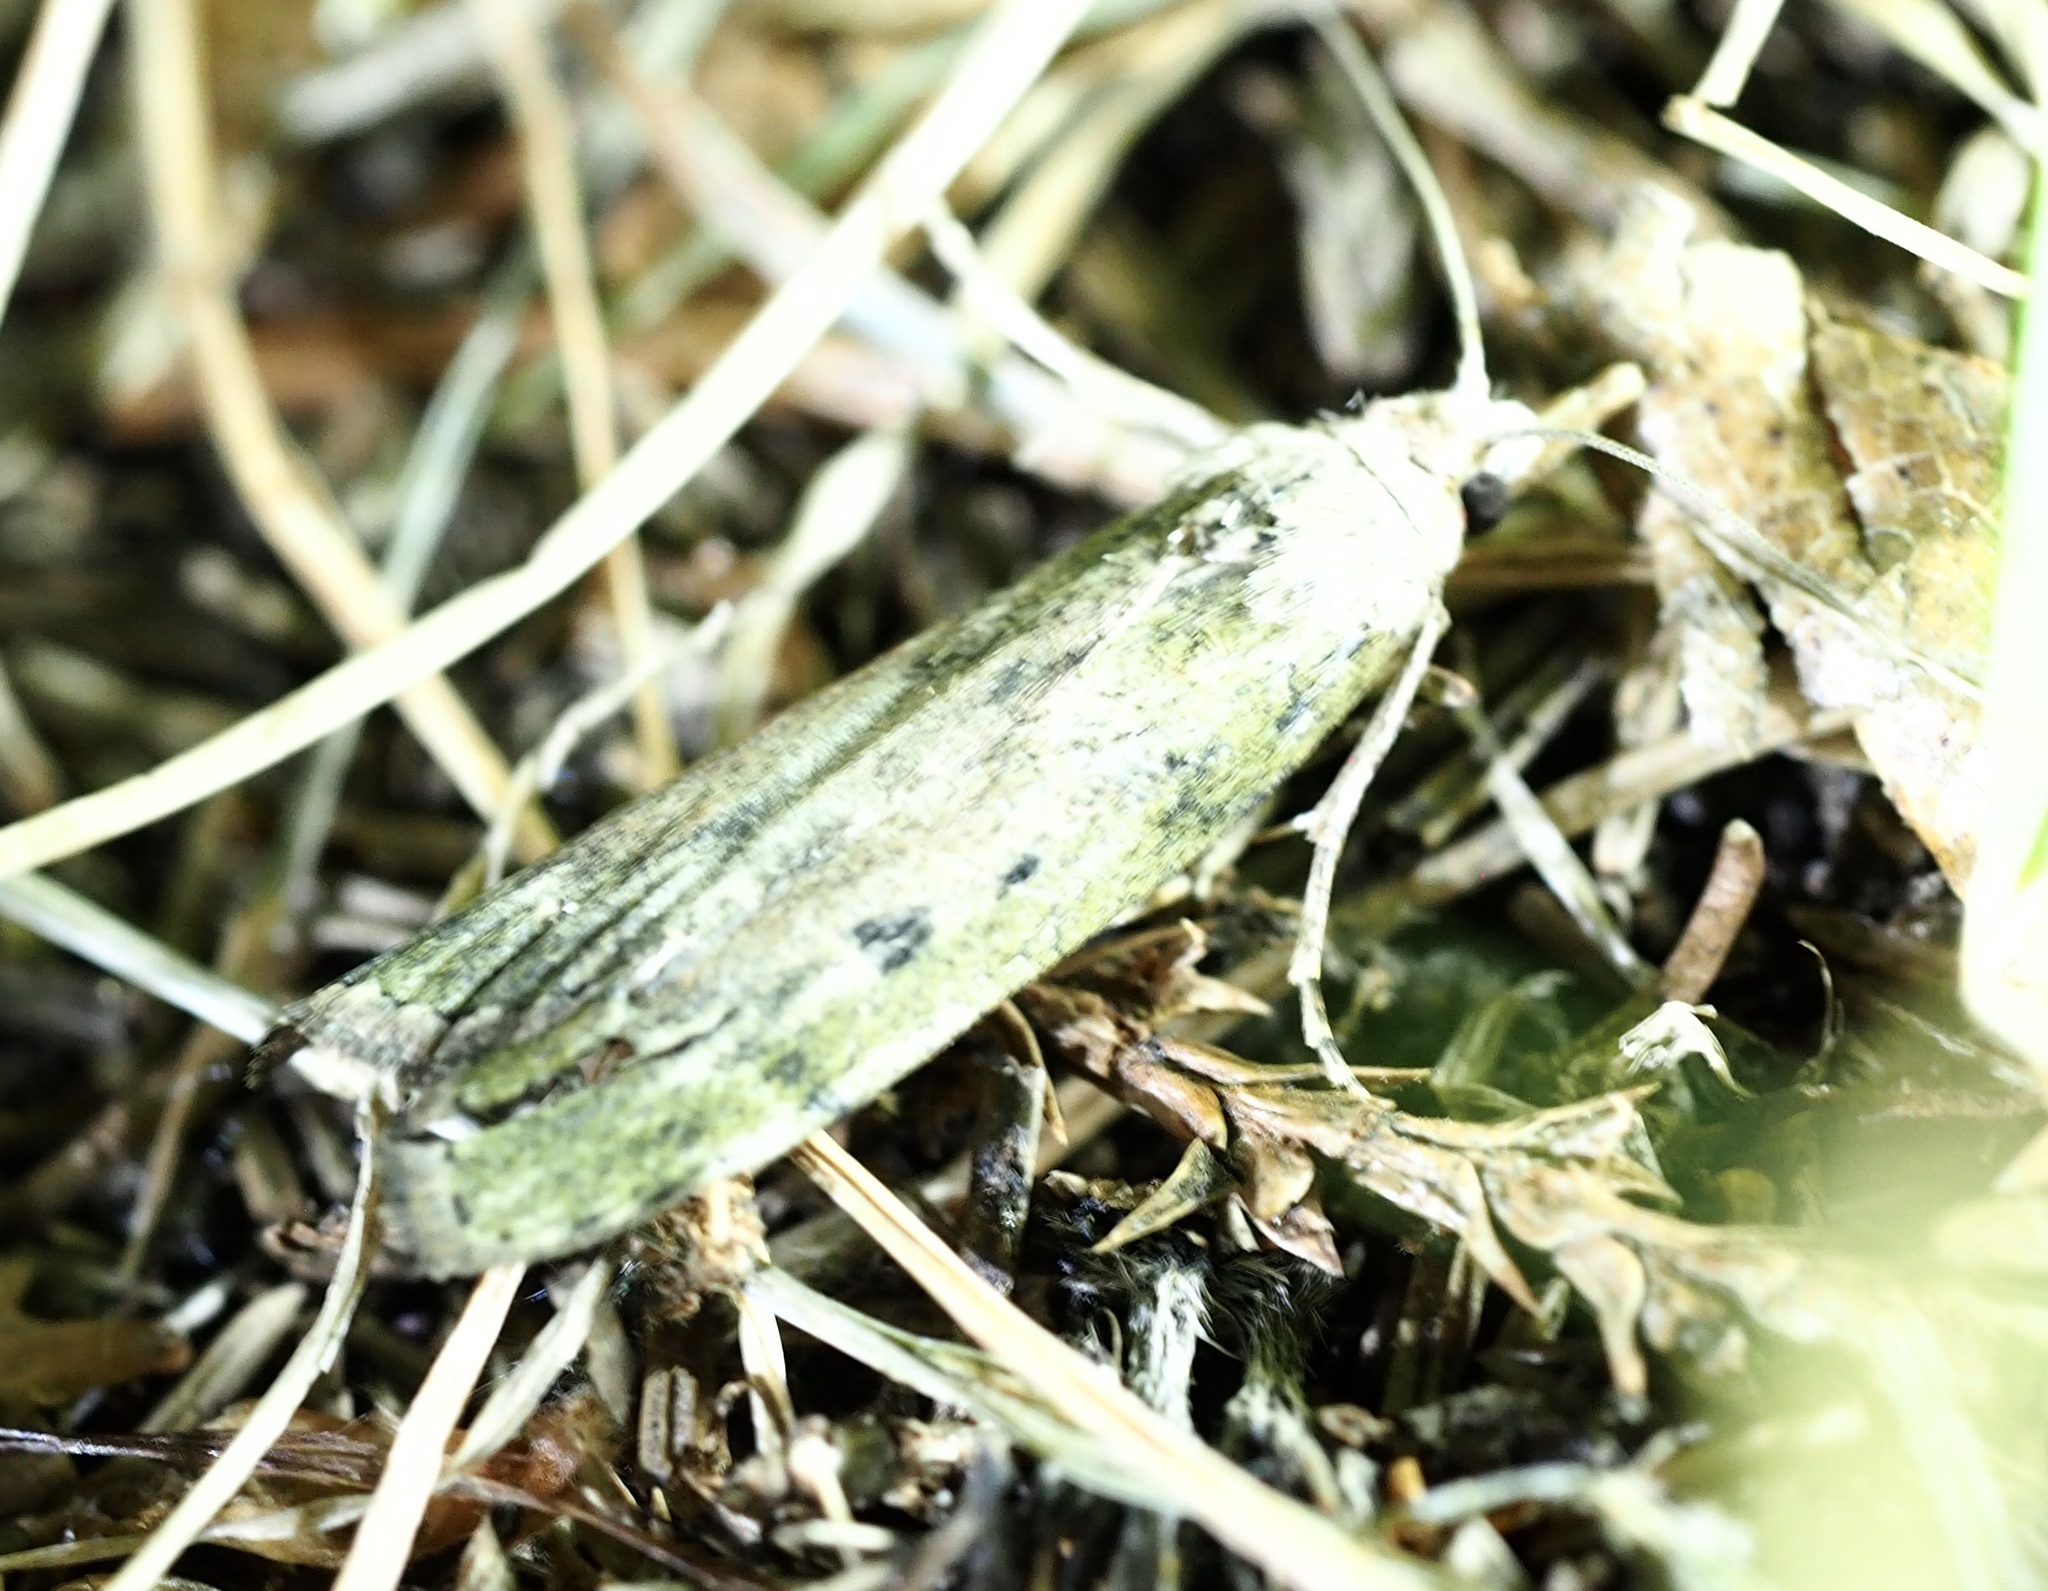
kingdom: Animalia
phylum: Arthropoda
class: Insecta
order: Lepidoptera
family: Pyralidae
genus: Aphomia
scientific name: Aphomia sociella
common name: Bee moth
